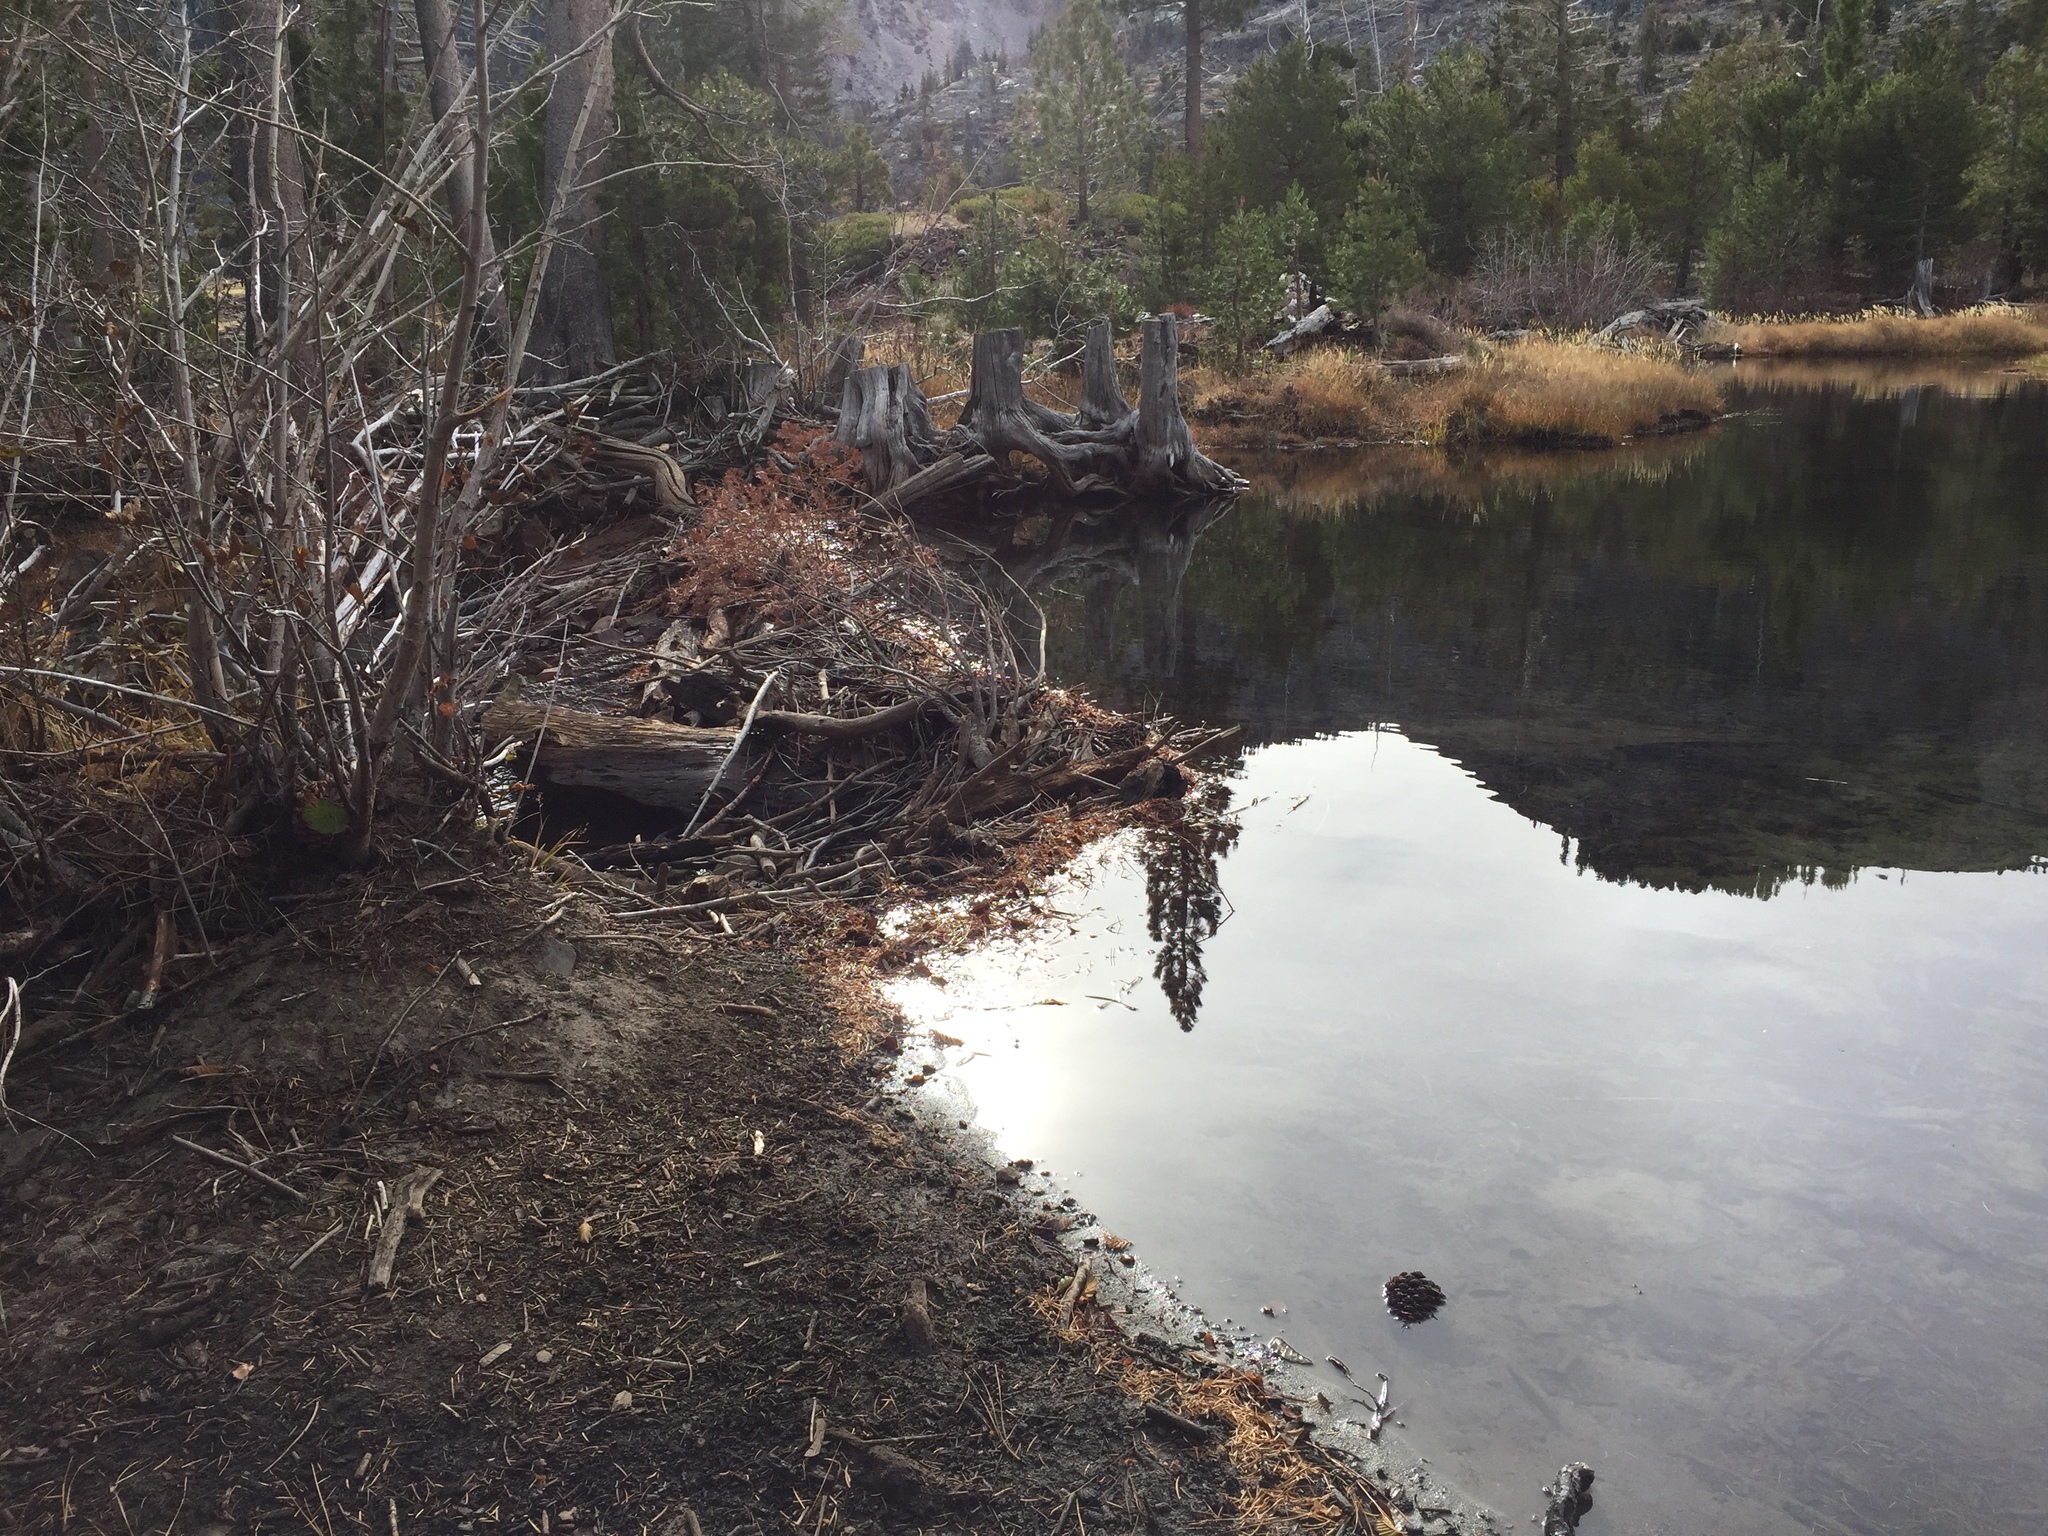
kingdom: Animalia
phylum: Chordata
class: Mammalia
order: Rodentia
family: Castoridae
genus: Castor
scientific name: Castor canadensis
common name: American beaver
